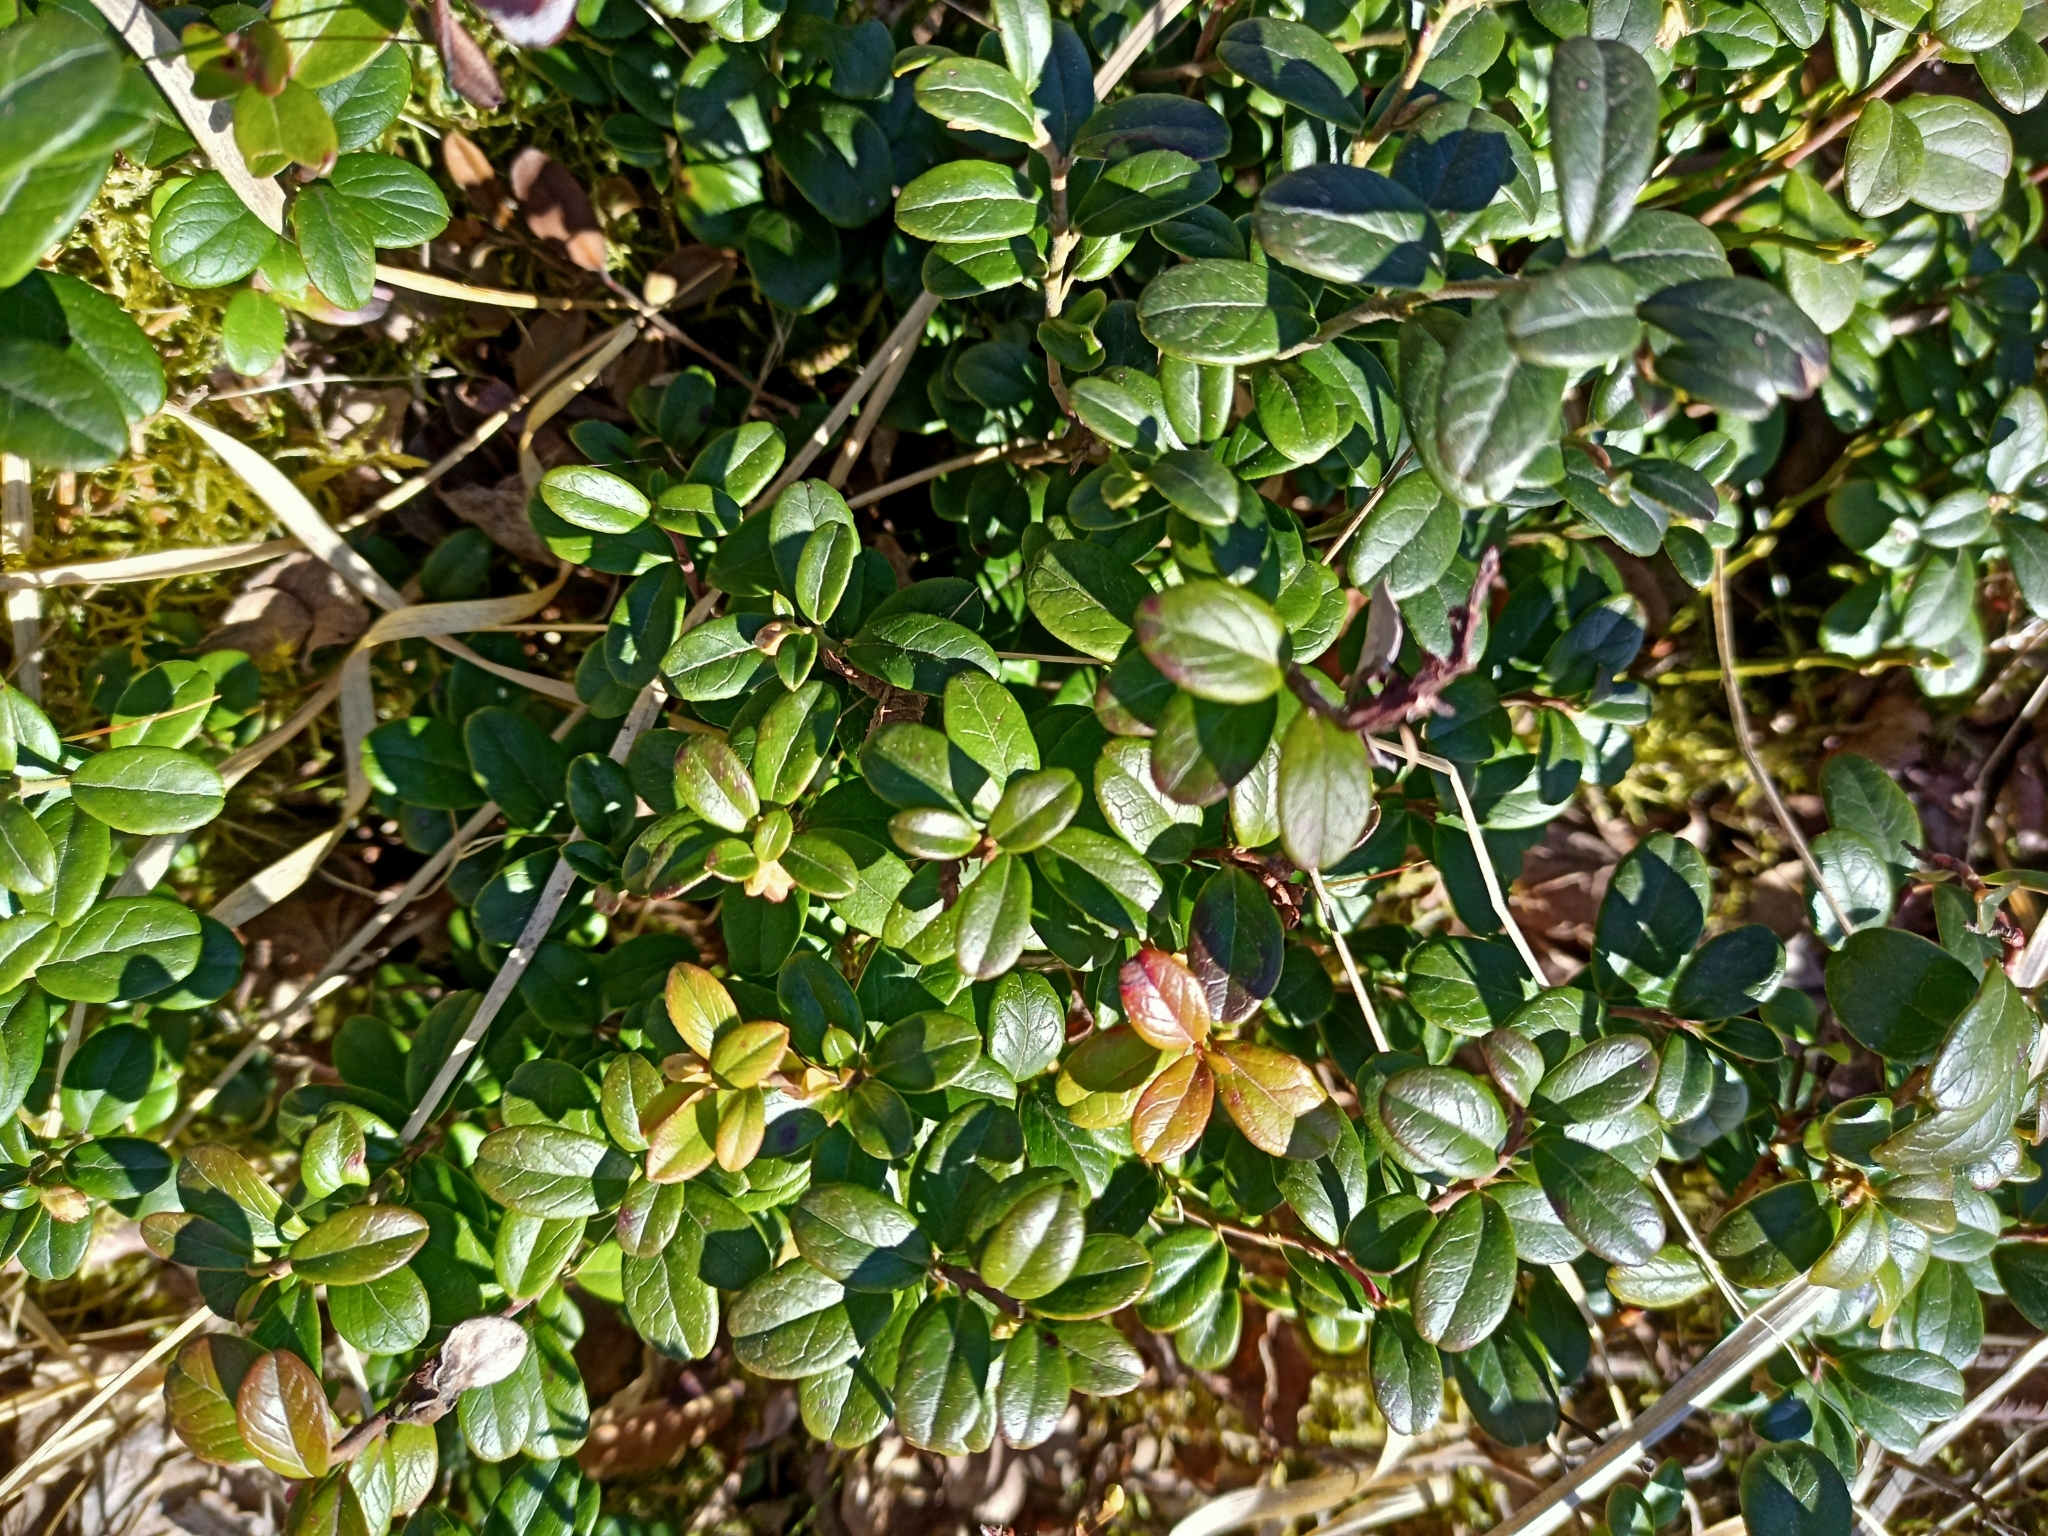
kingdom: Plantae
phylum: Tracheophyta
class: Magnoliopsida
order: Ericales
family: Ericaceae
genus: Vaccinium
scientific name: Vaccinium vitis-idaea
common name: Cowberry
